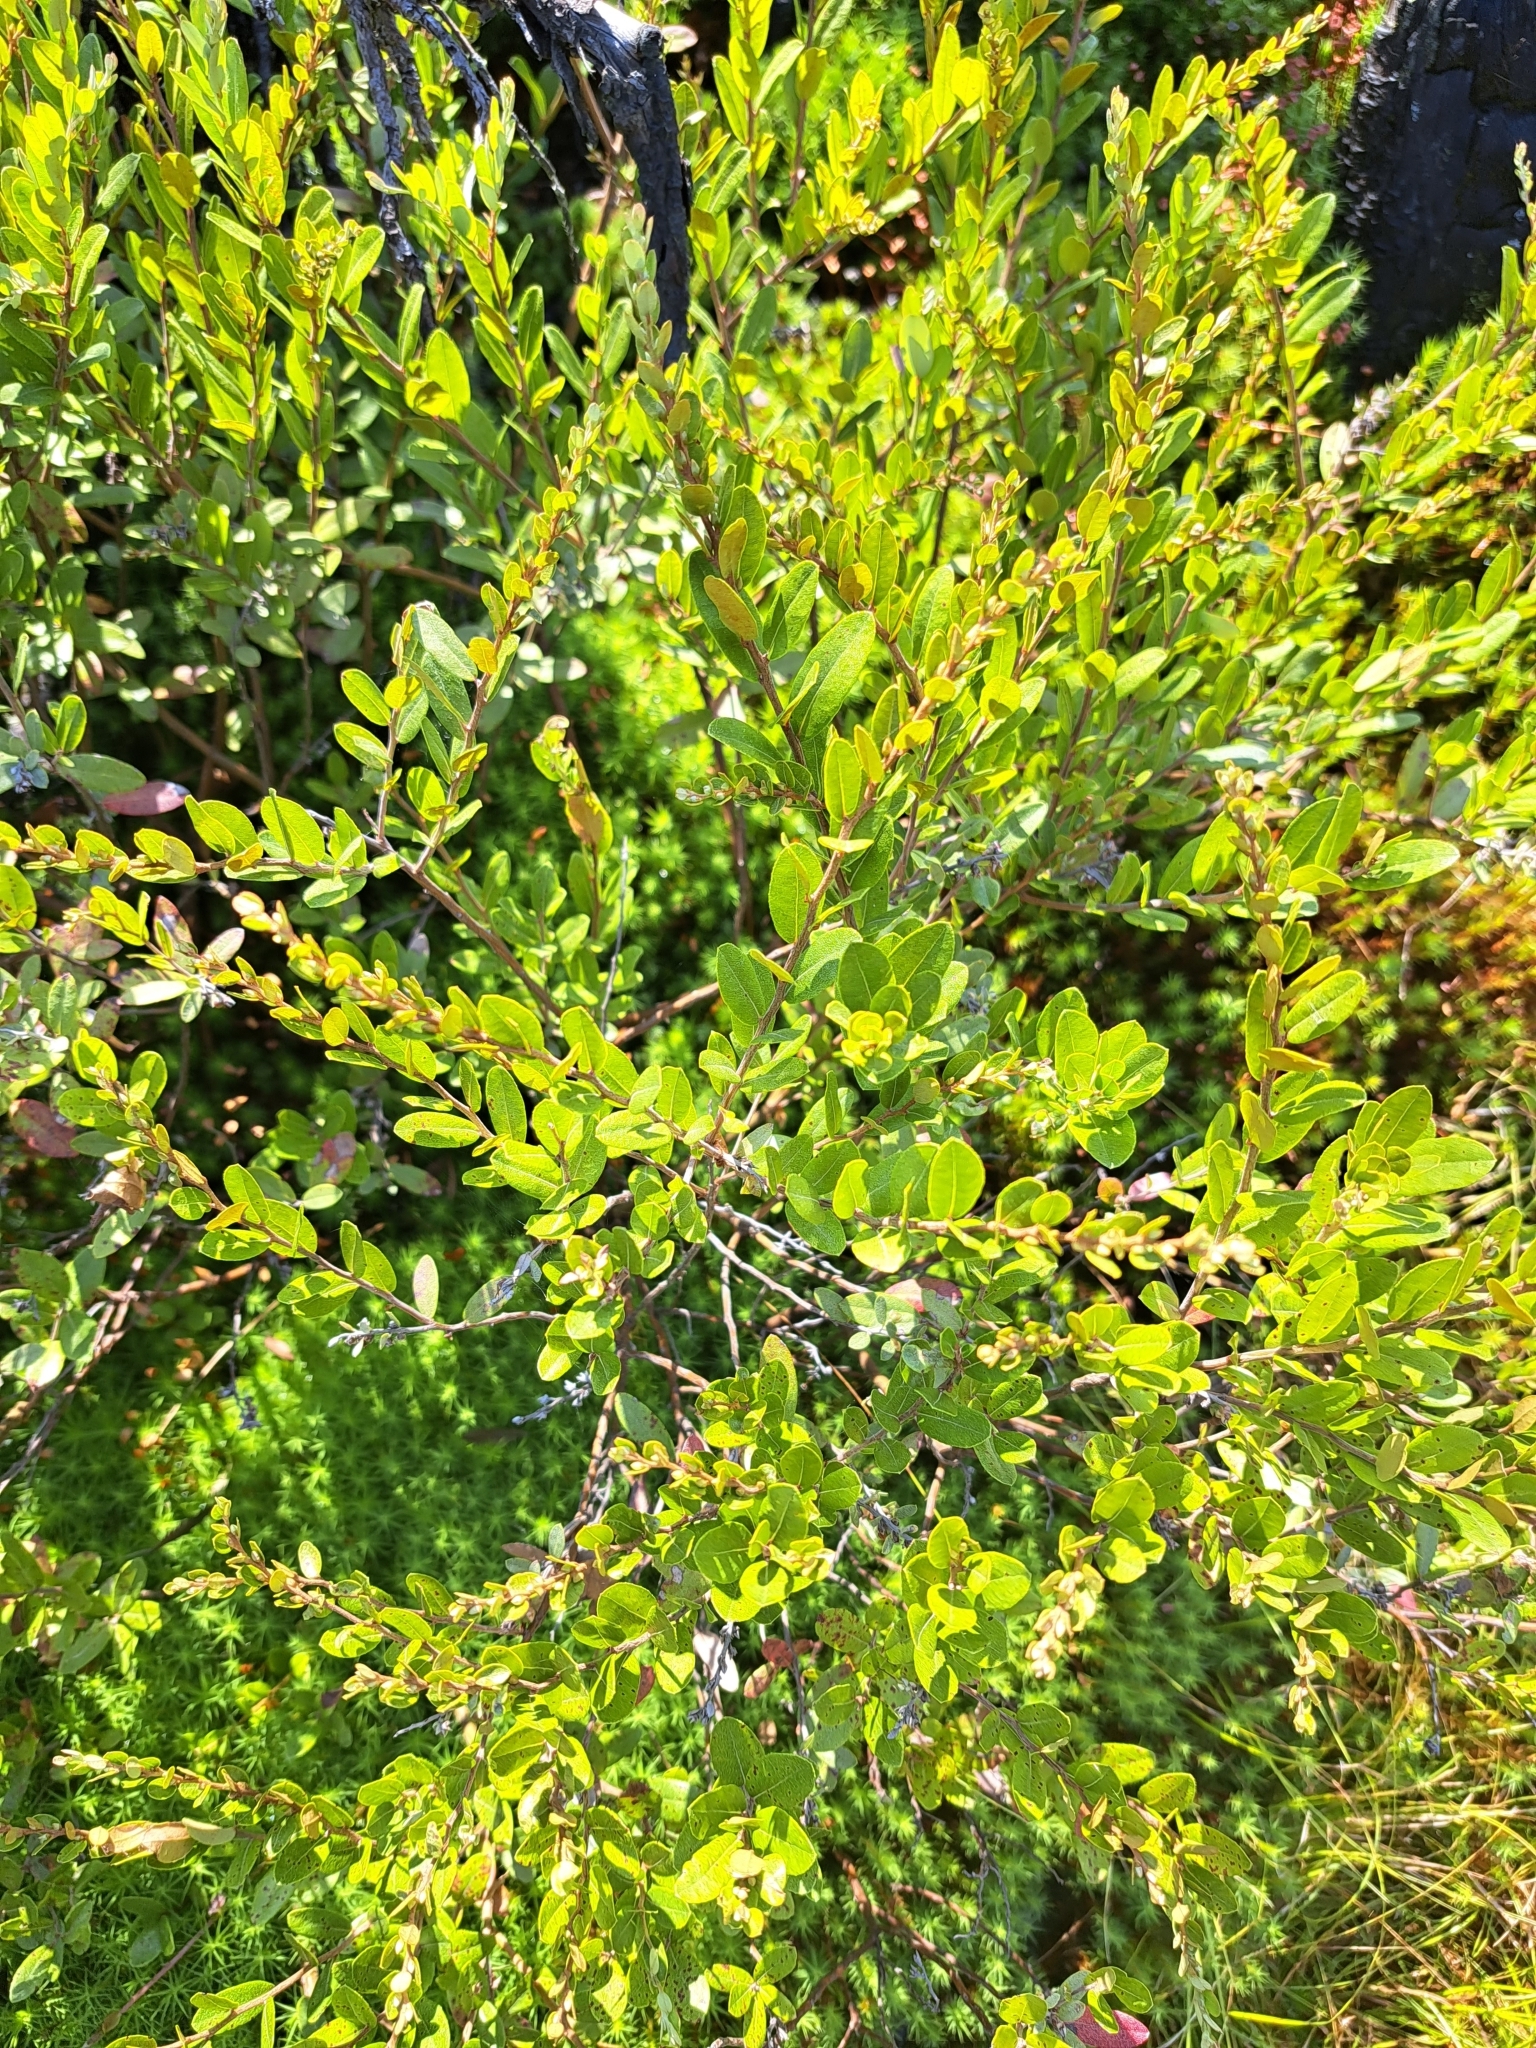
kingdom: Plantae
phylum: Tracheophyta
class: Magnoliopsida
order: Ericales
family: Ericaceae
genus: Chamaedaphne
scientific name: Chamaedaphne calyculata
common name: Leatherleaf
